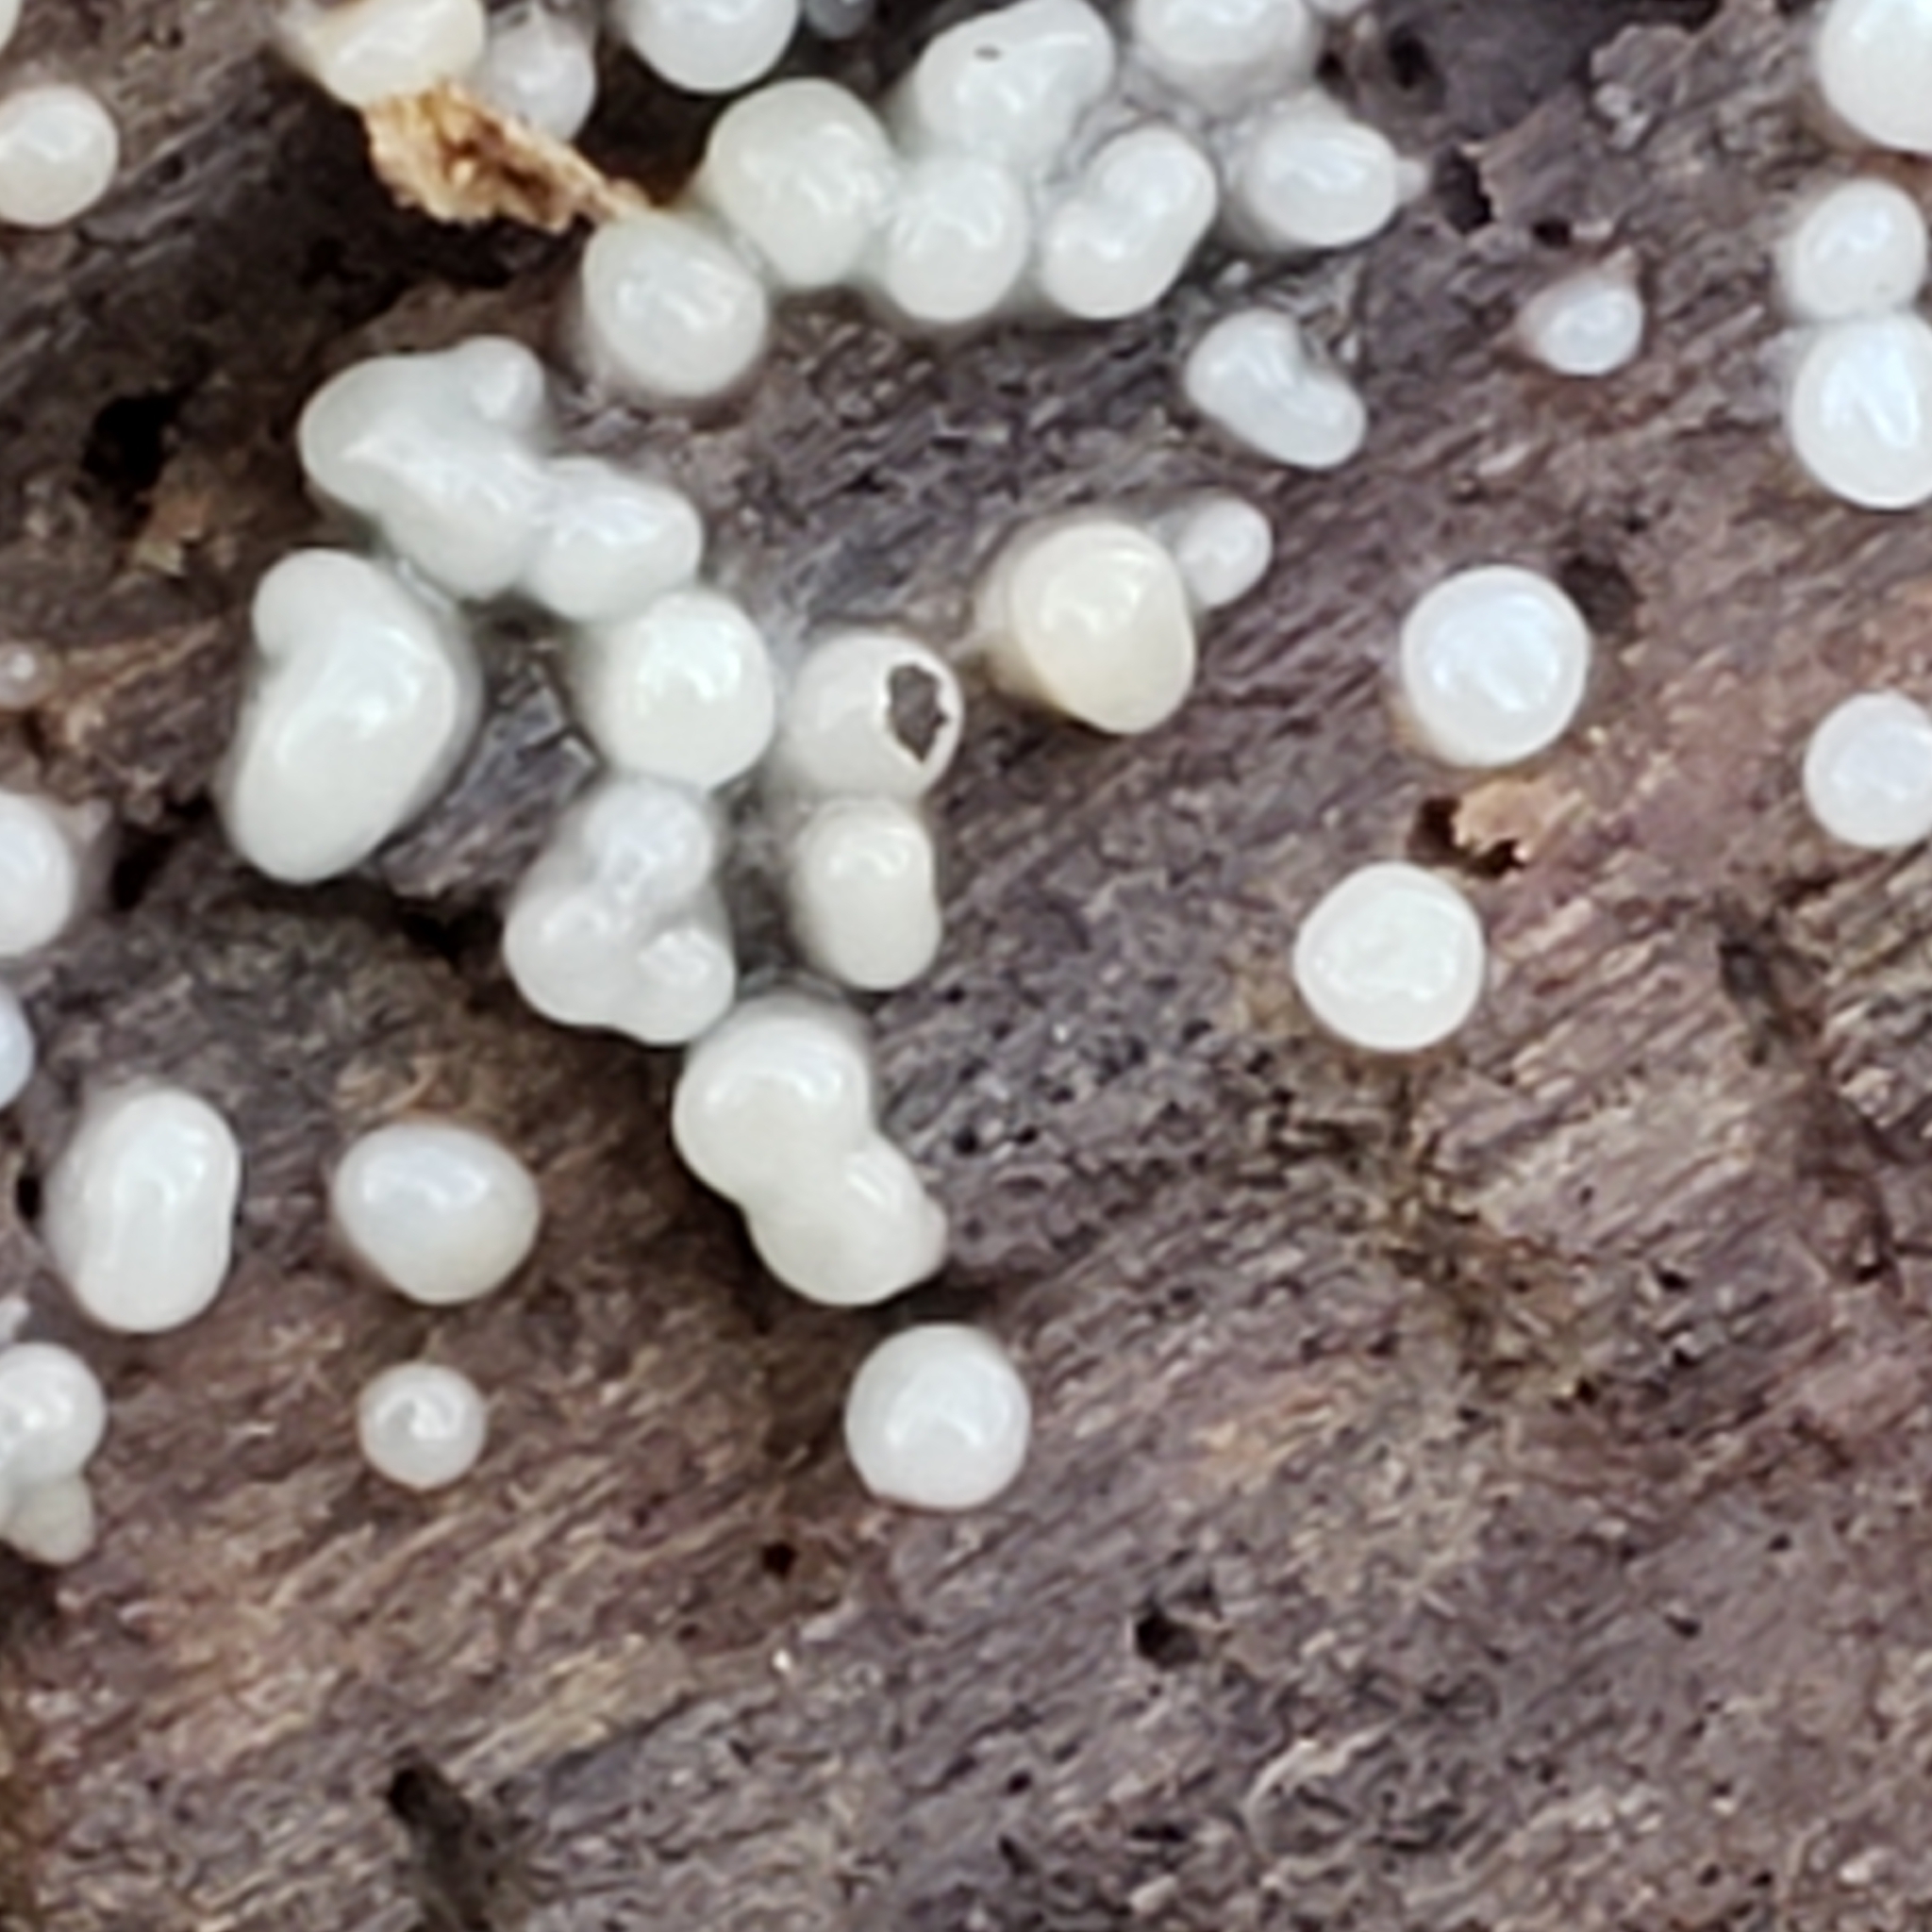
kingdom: Fungi
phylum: Basidiomycota
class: Atractiellomycetes
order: Atractiellales
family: Phleogenaceae
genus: Helicogloea
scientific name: Helicogloea compressa
